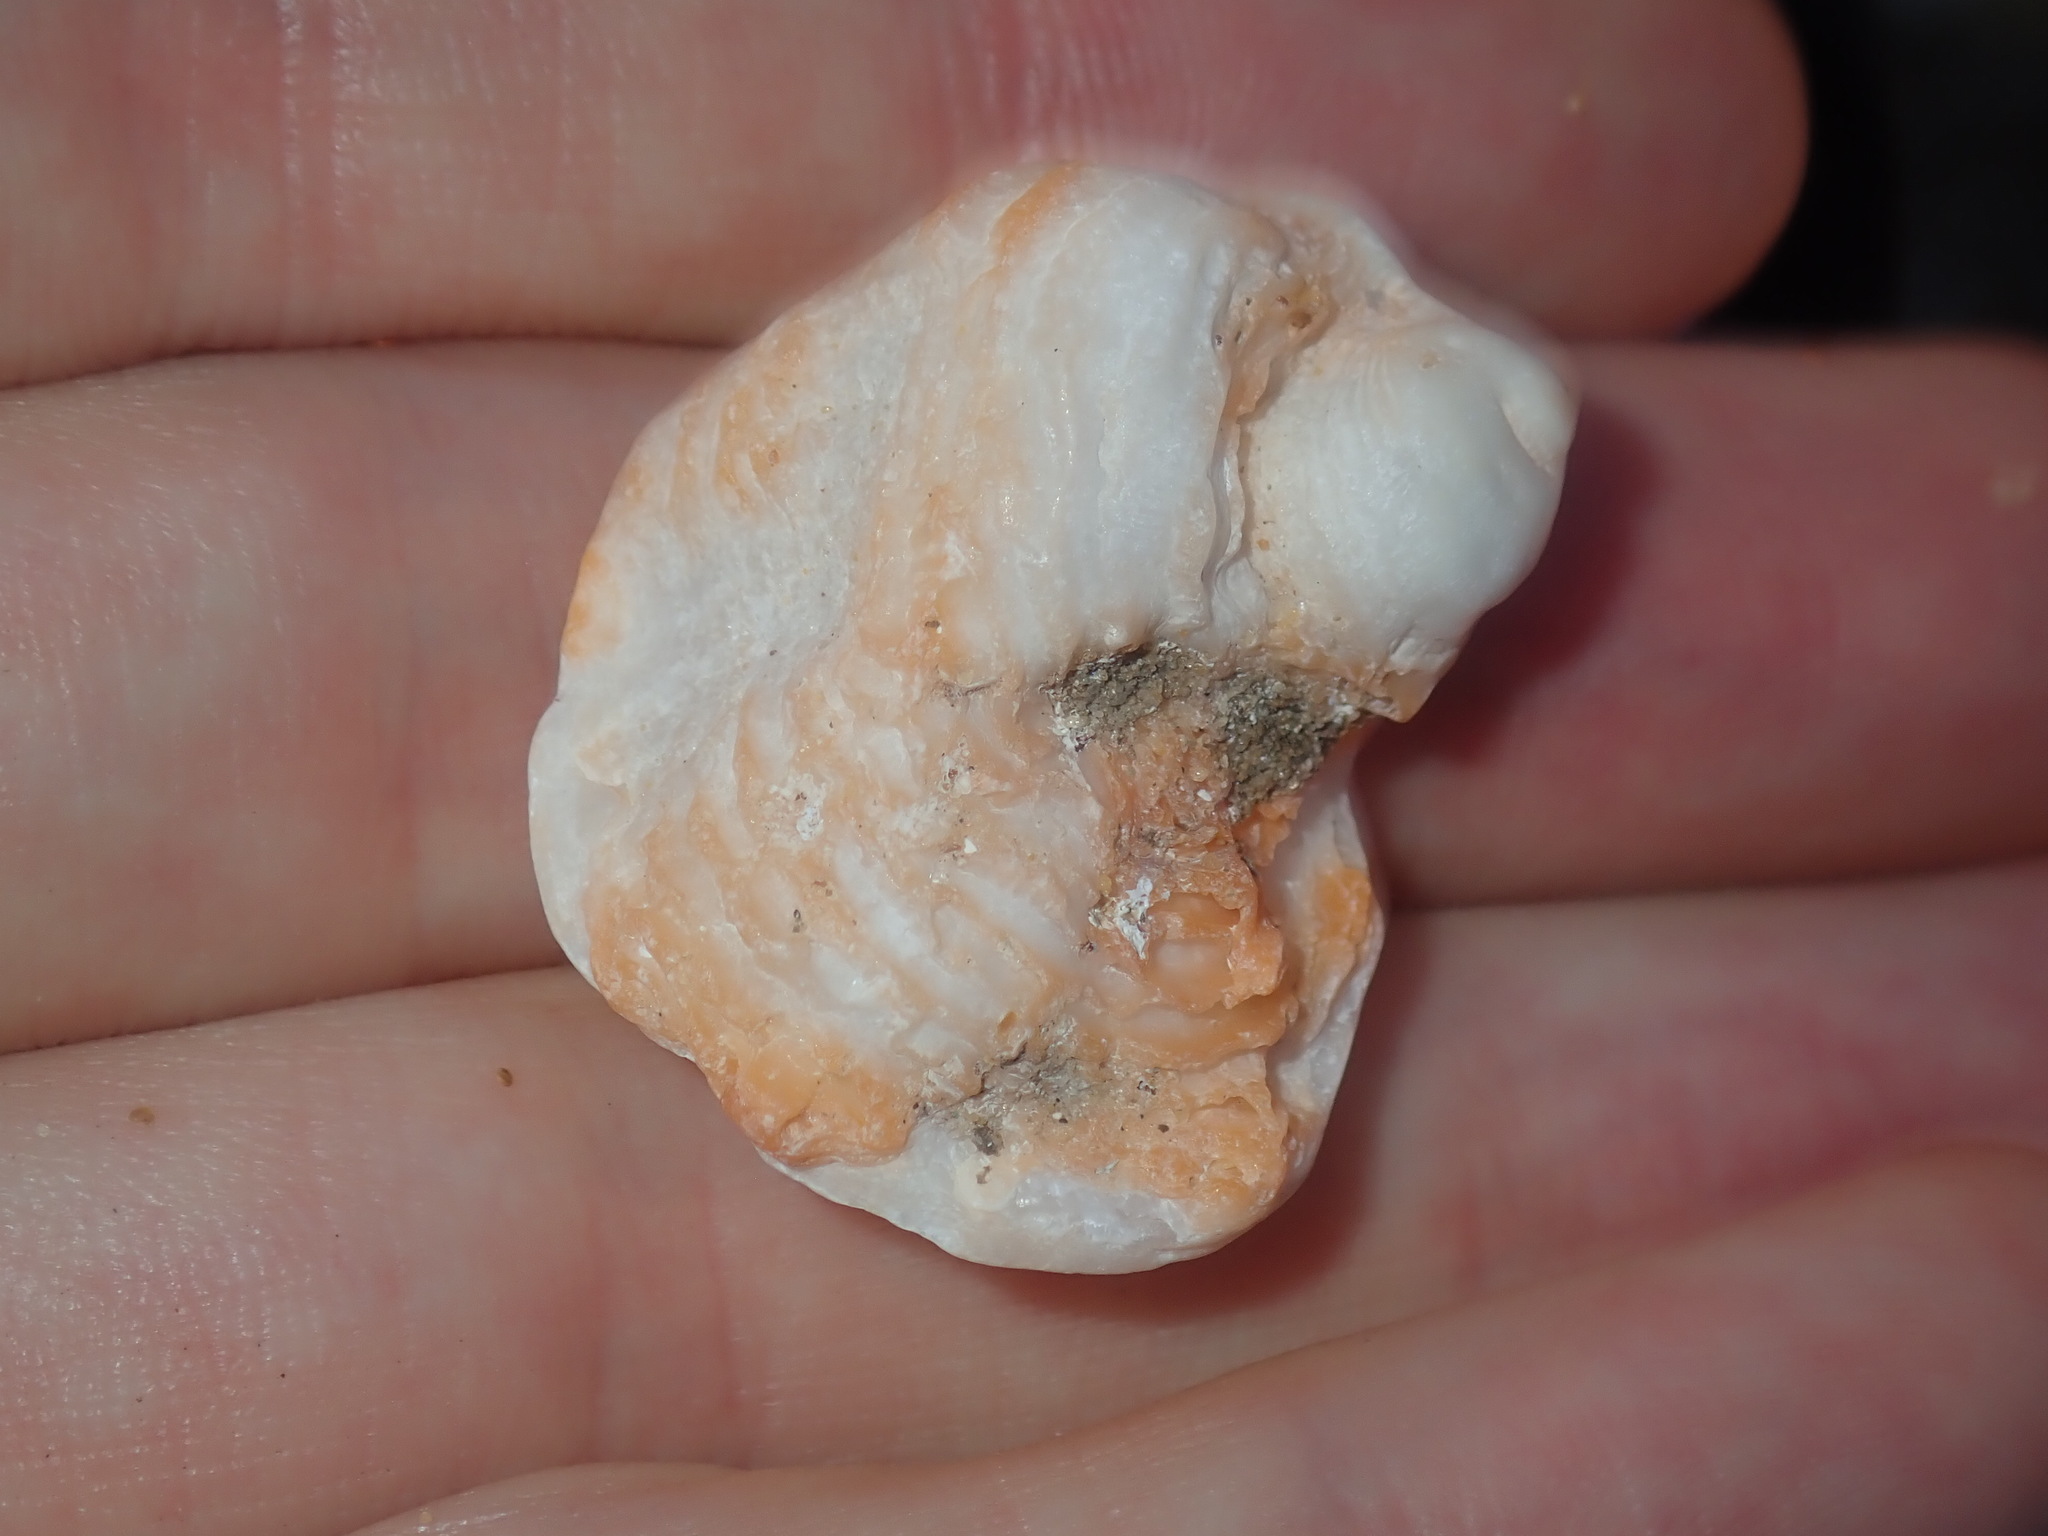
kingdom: Animalia
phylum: Mollusca
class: Bivalvia
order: Pectinida
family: Spondylidae
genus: Spondylus
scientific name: Spondylus tenellus
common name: Scarlet thorny oyster
